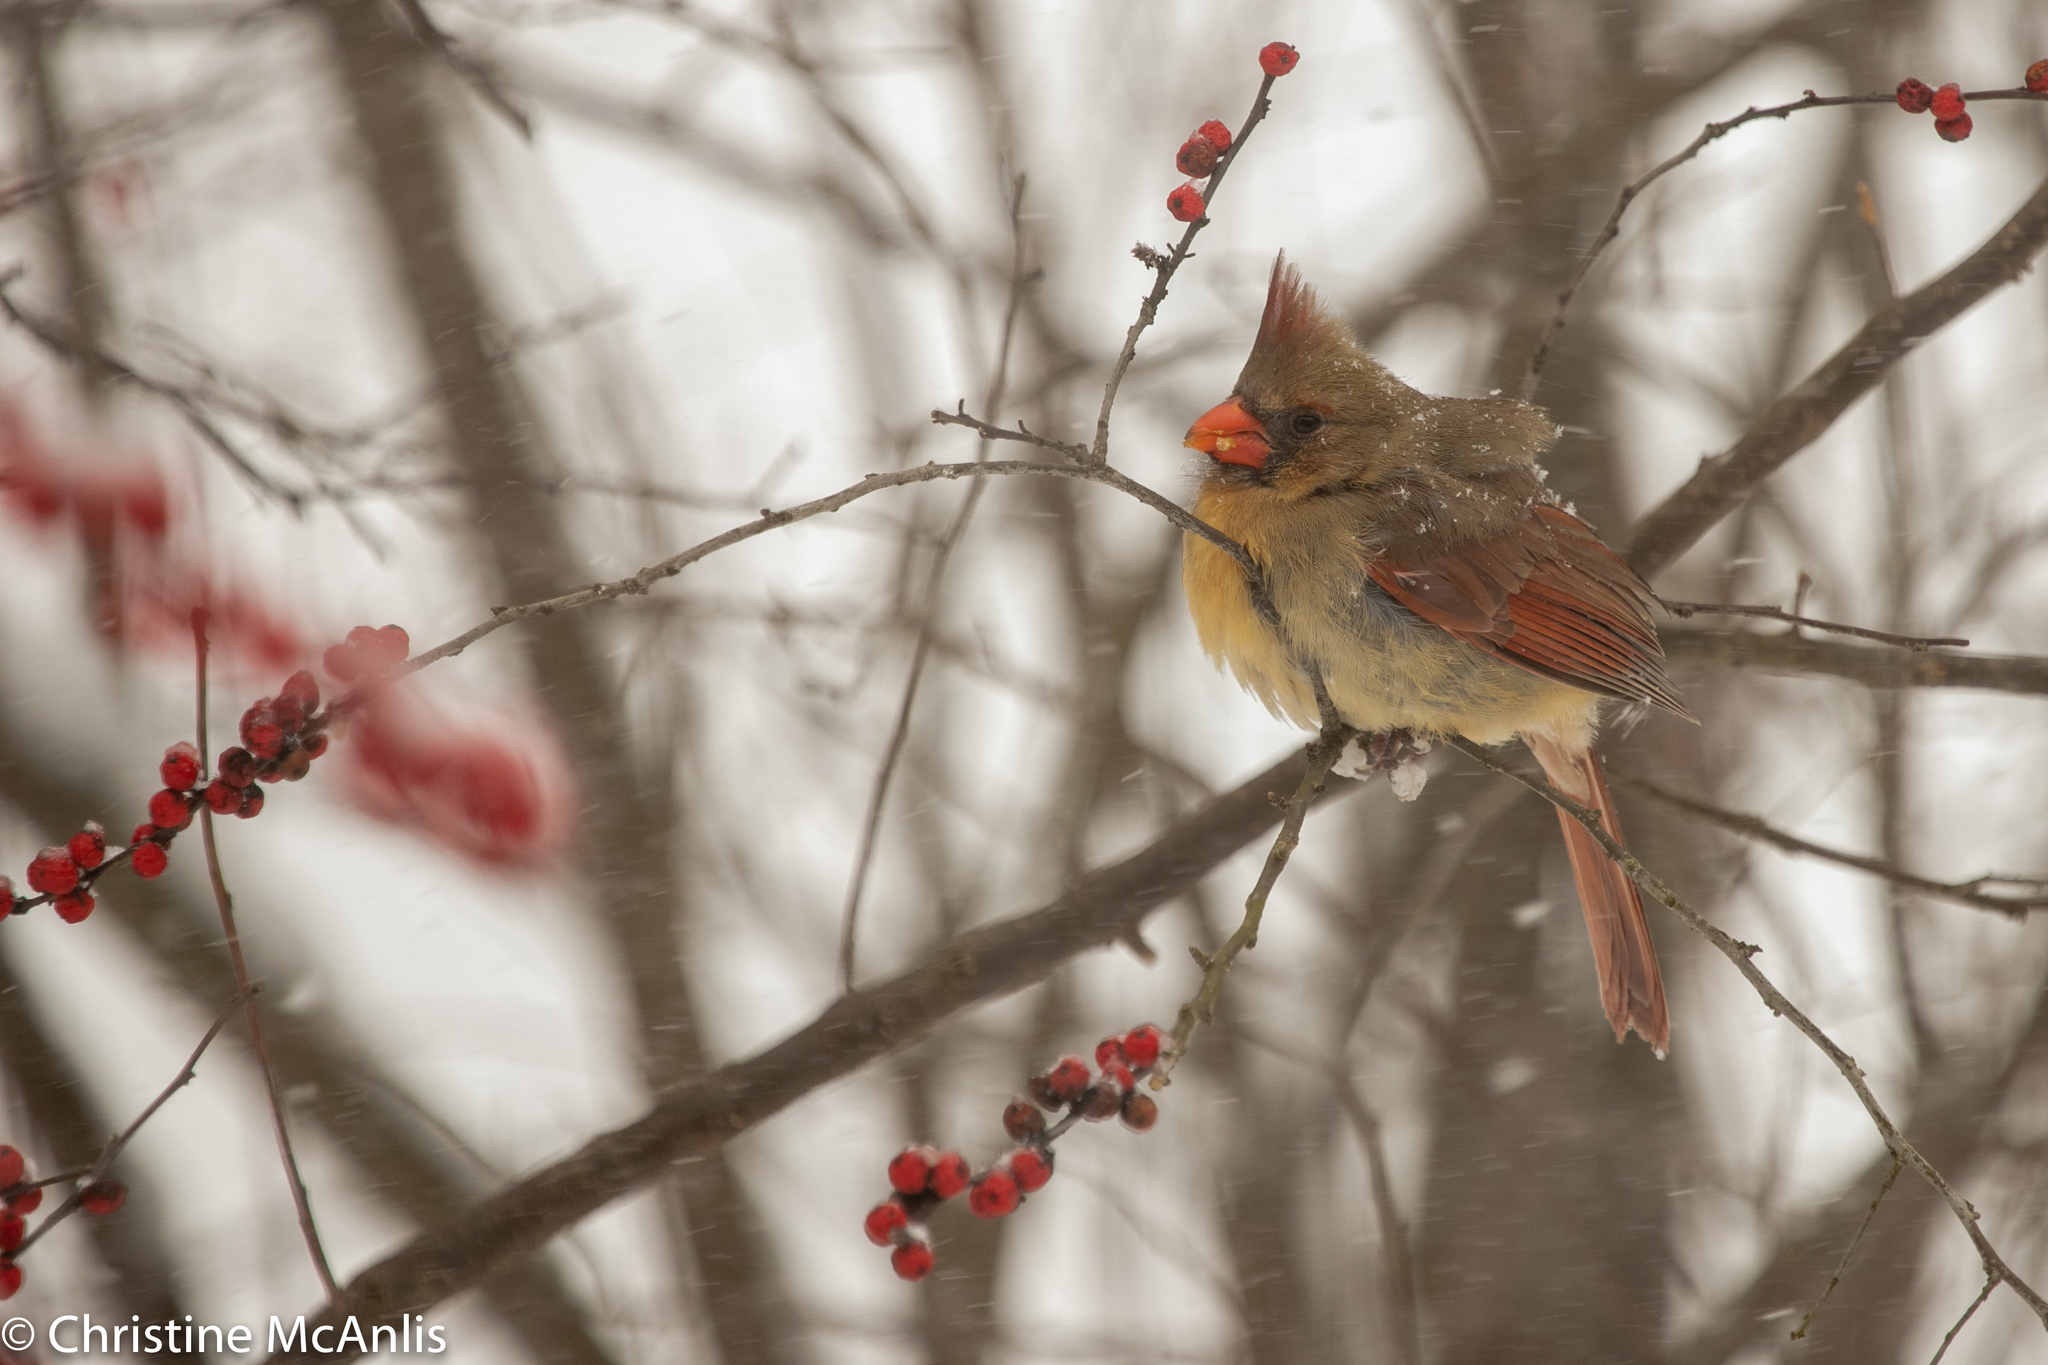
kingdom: Animalia
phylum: Chordata
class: Aves
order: Passeriformes
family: Cardinalidae
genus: Cardinalis
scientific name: Cardinalis cardinalis
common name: Northern cardinal
